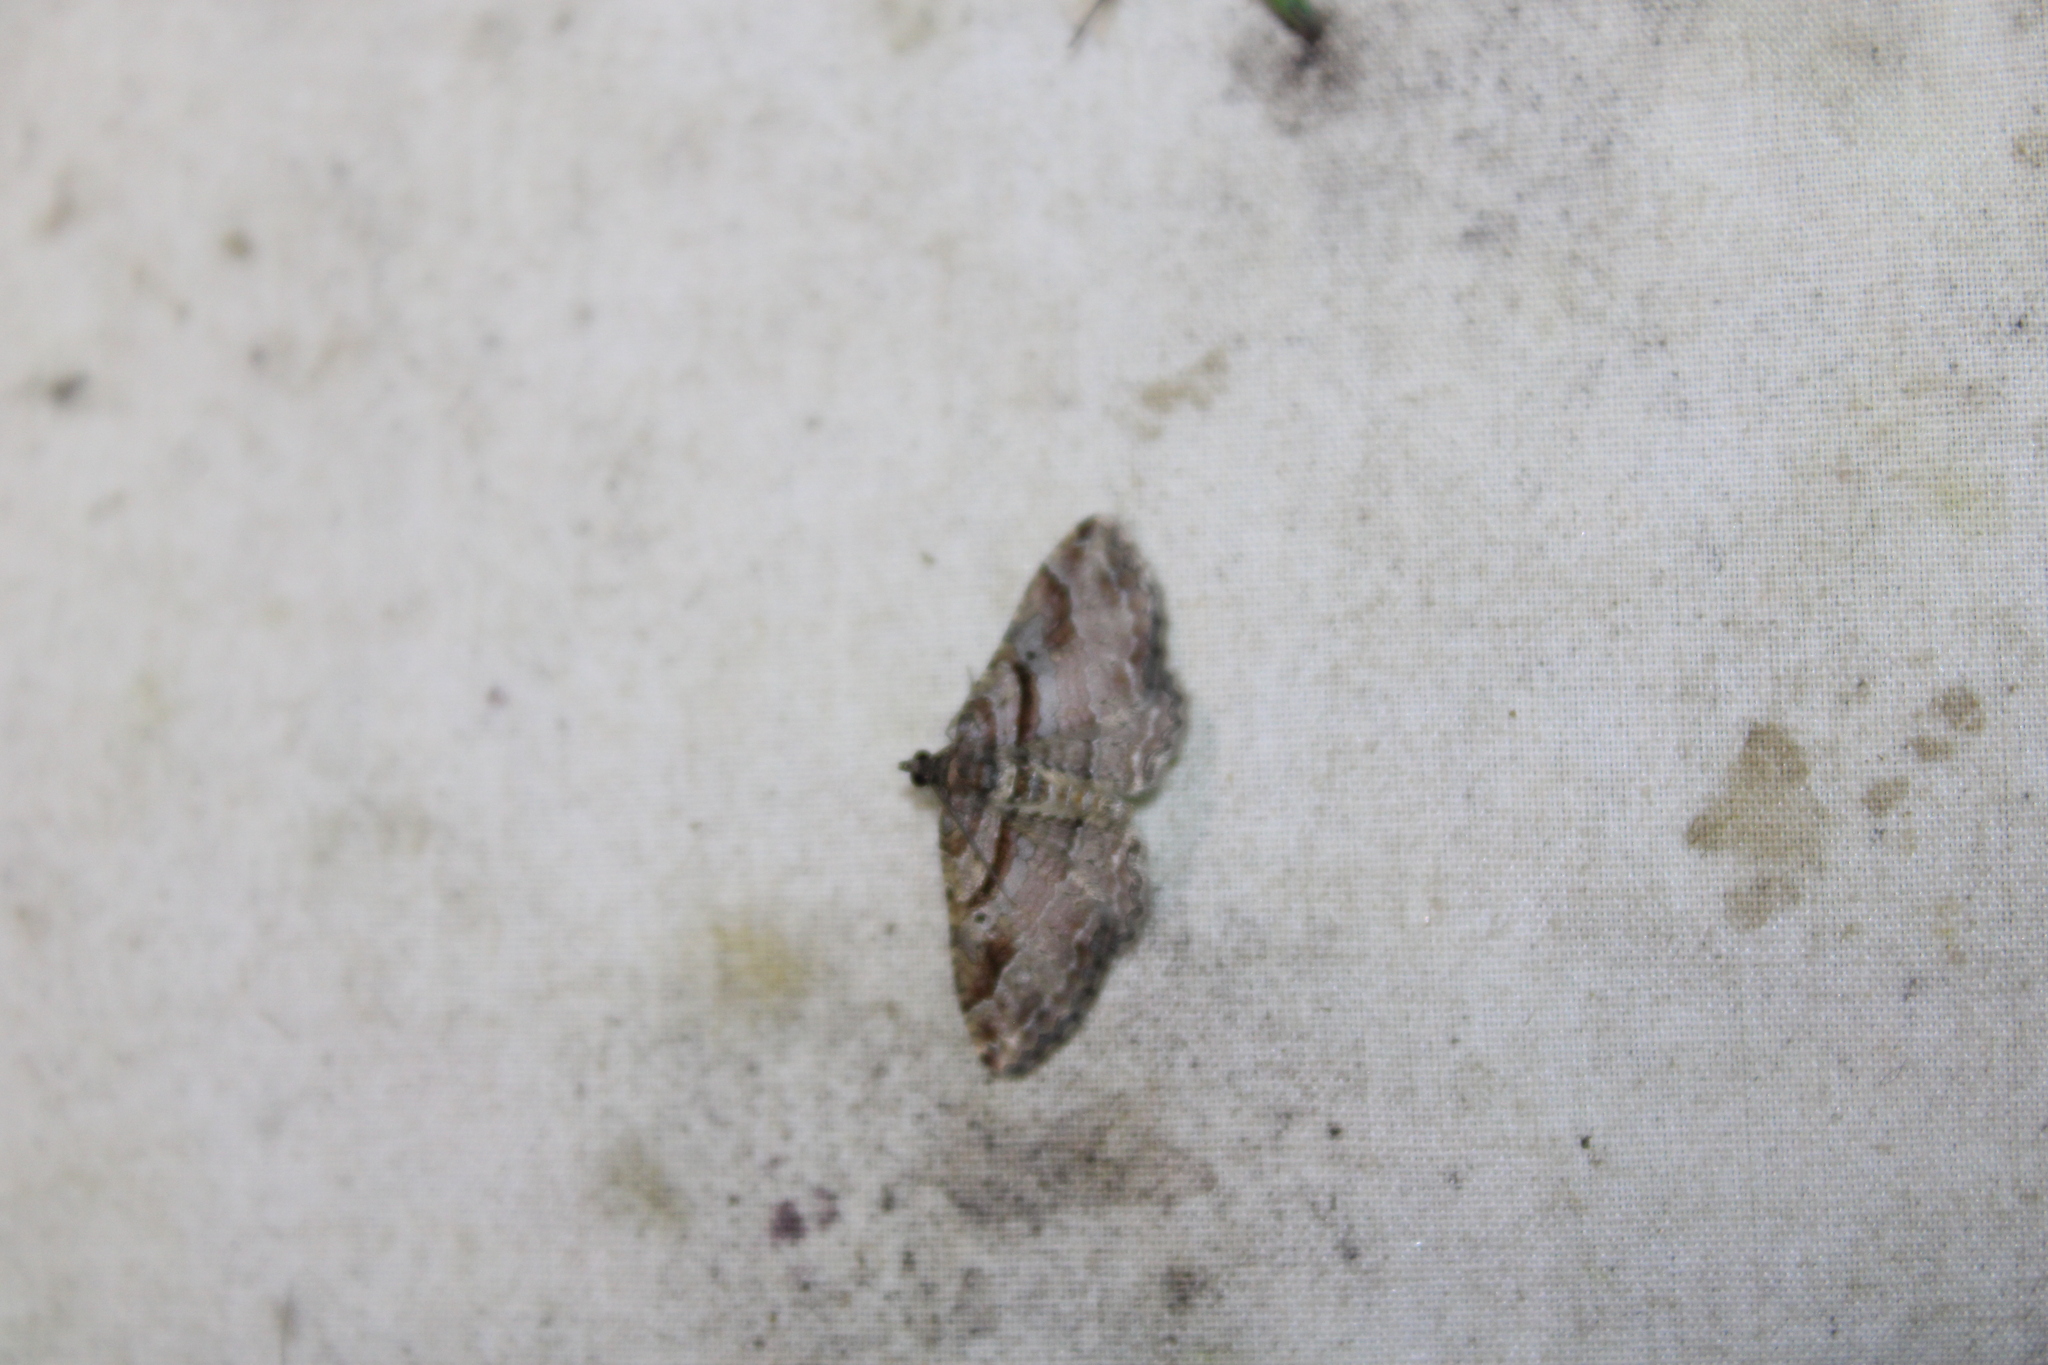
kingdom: Animalia
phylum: Arthropoda
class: Insecta
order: Lepidoptera
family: Geometridae
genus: Costaconvexa
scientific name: Costaconvexa centrostrigaria
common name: Bent-line carpet
